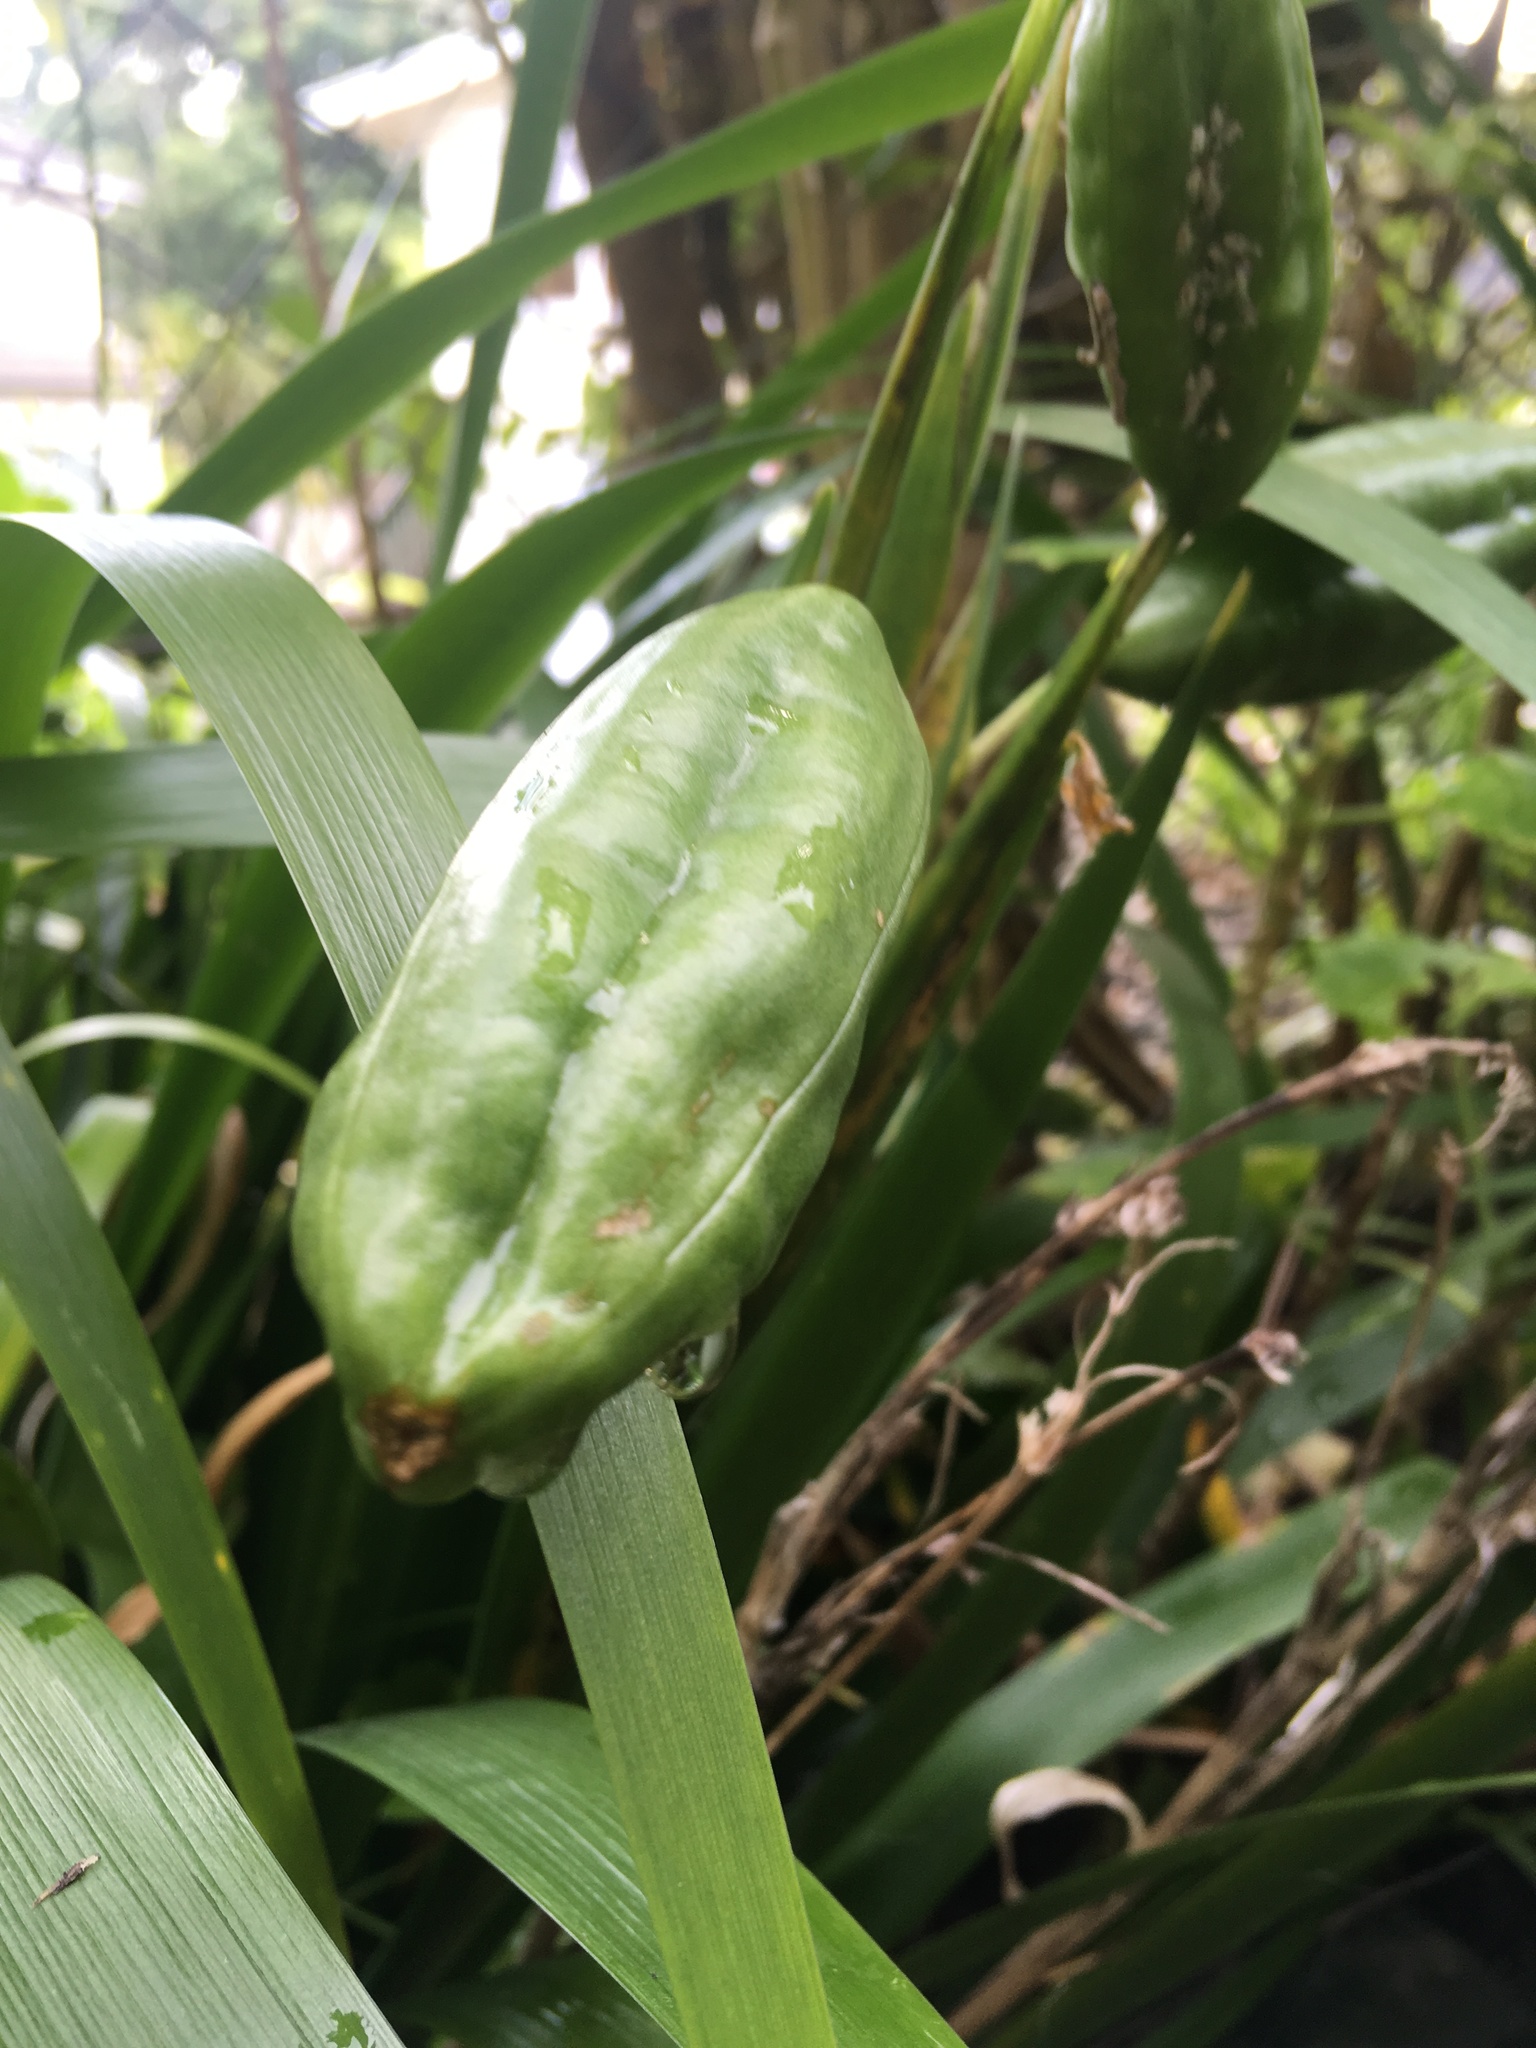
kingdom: Plantae
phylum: Tracheophyta
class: Liliopsida
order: Asparagales
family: Iridaceae
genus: Iris
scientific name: Iris foetidissima
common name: Stinking iris
